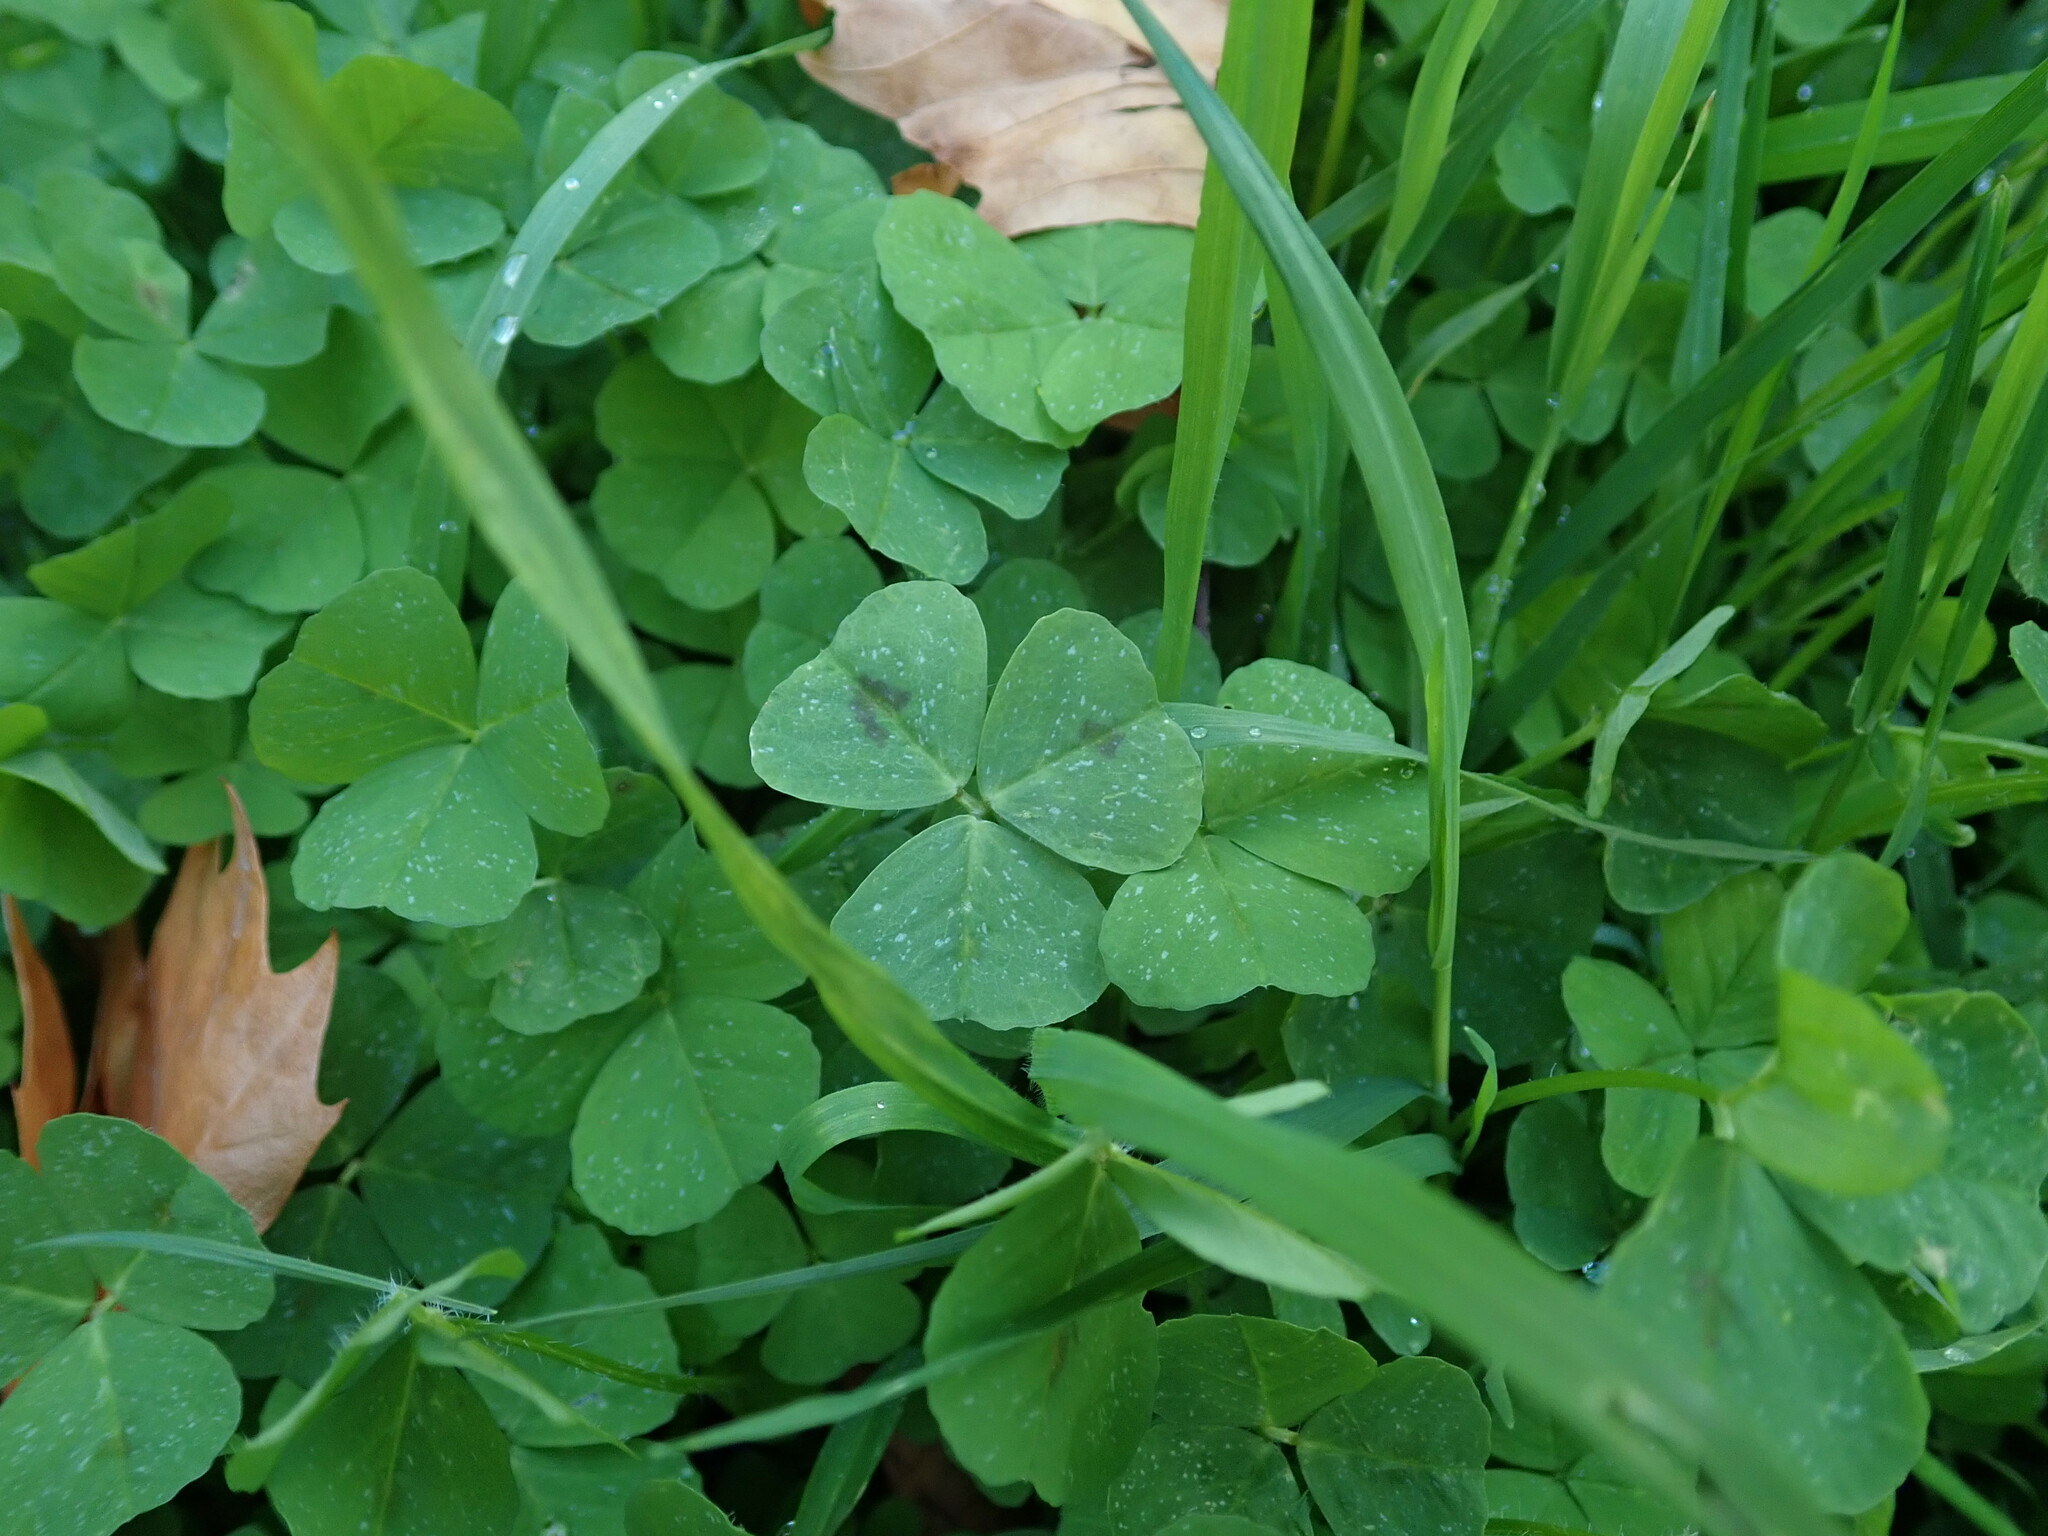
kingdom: Plantae
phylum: Tracheophyta
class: Magnoliopsida
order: Fabales
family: Fabaceae
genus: Medicago
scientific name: Medicago arabica
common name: Spotted medick
